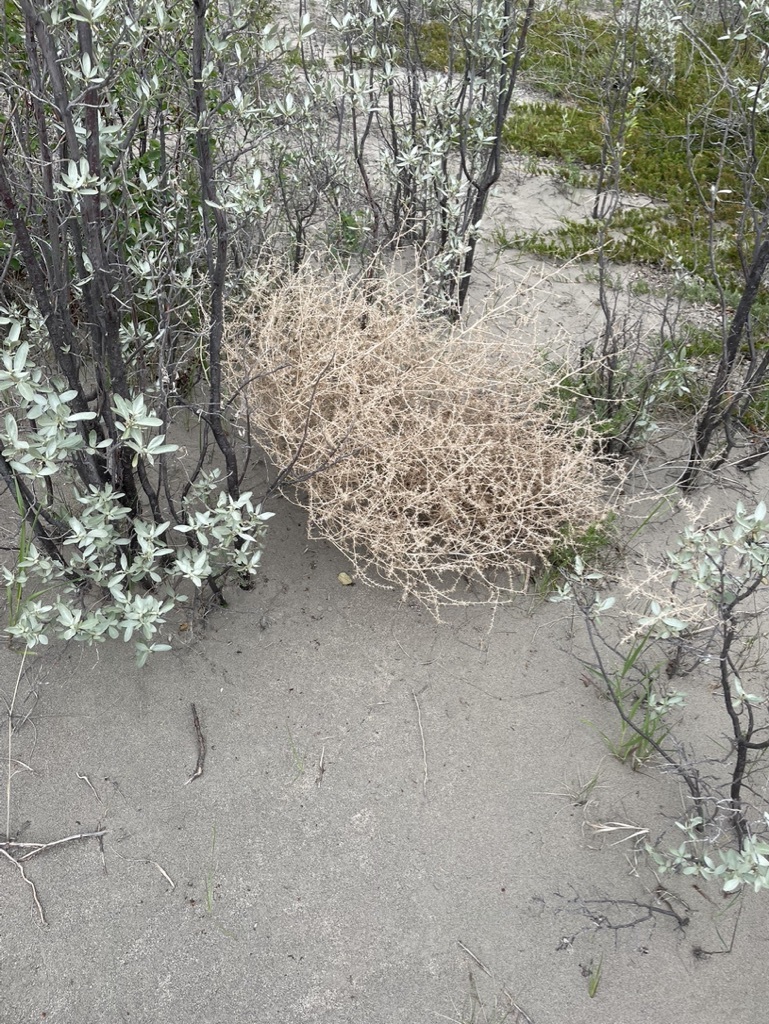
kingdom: Plantae
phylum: Tracheophyta
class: Magnoliopsida
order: Caryophyllales
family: Amaranthaceae
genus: Salsola
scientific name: Salsola tragus
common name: Prickly russian thistle
